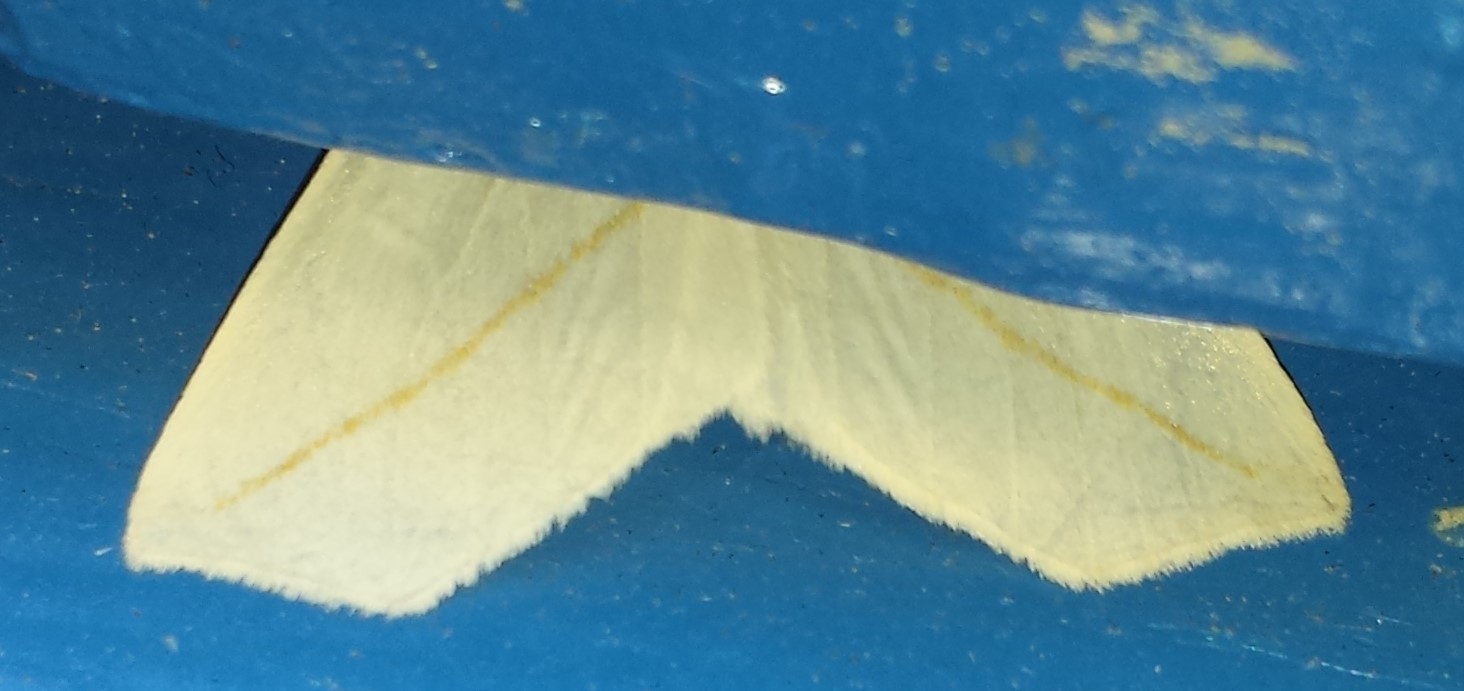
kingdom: Animalia
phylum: Arthropoda
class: Insecta
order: Lepidoptera
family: Geometridae
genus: Tetracis
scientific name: Tetracis cachexiata
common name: White slant-line
